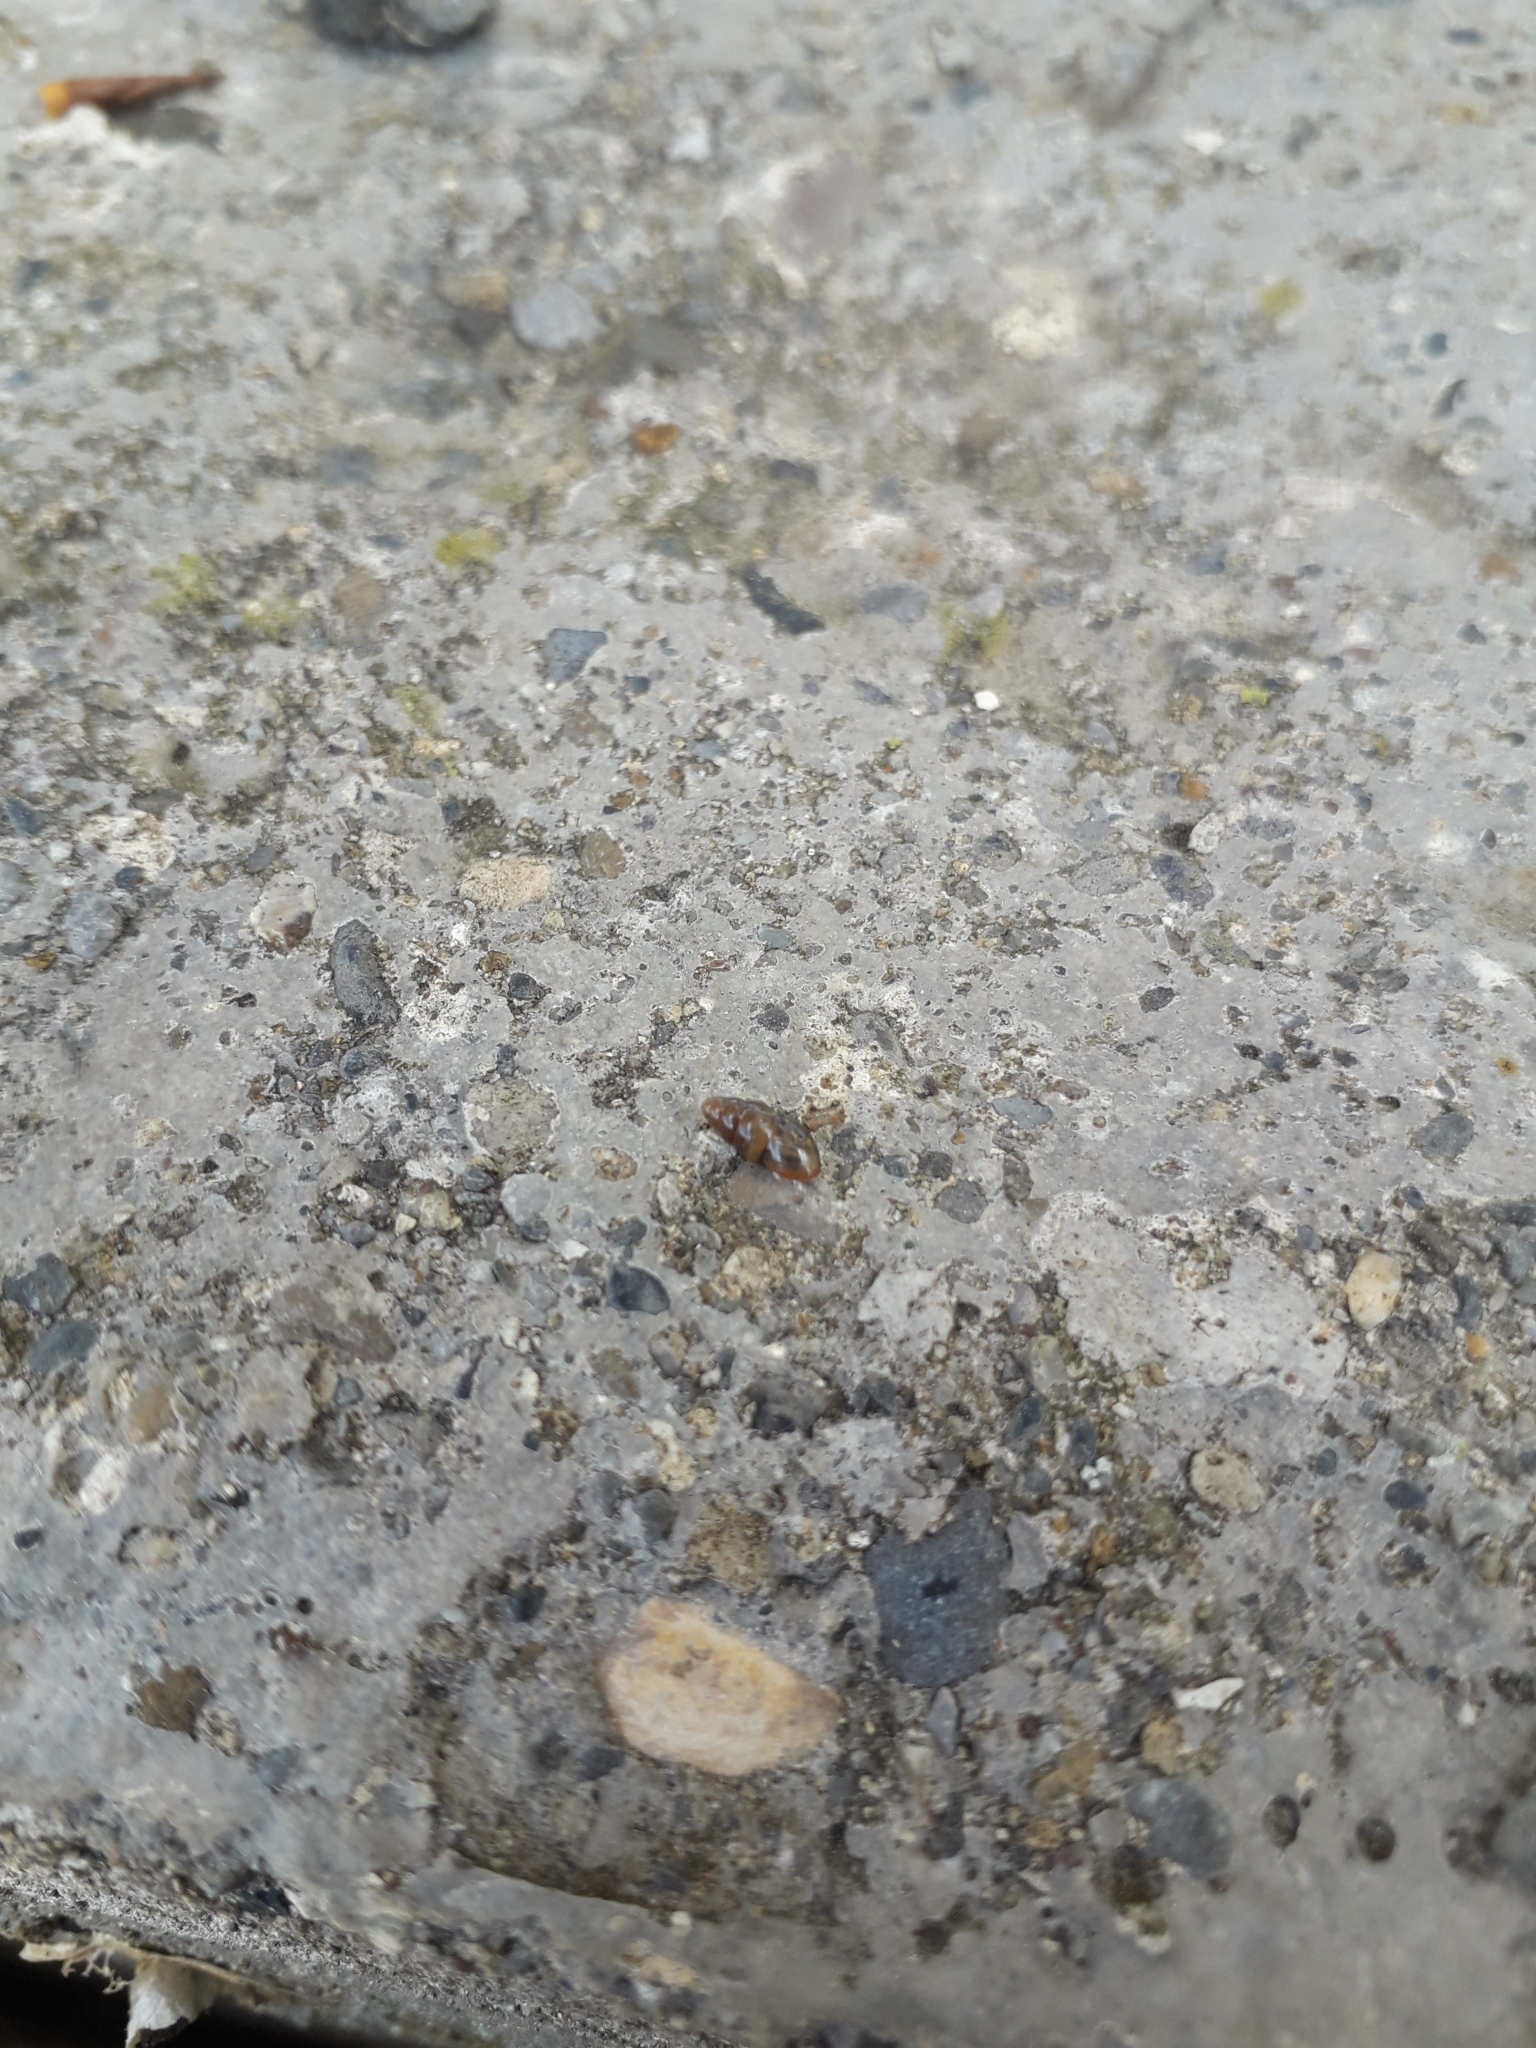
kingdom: Animalia
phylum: Mollusca
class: Gastropoda
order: Stylommatophora
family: Cochlicopidae
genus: Cochlicopa
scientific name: Cochlicopa lubrica
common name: Glossy pillar snail
